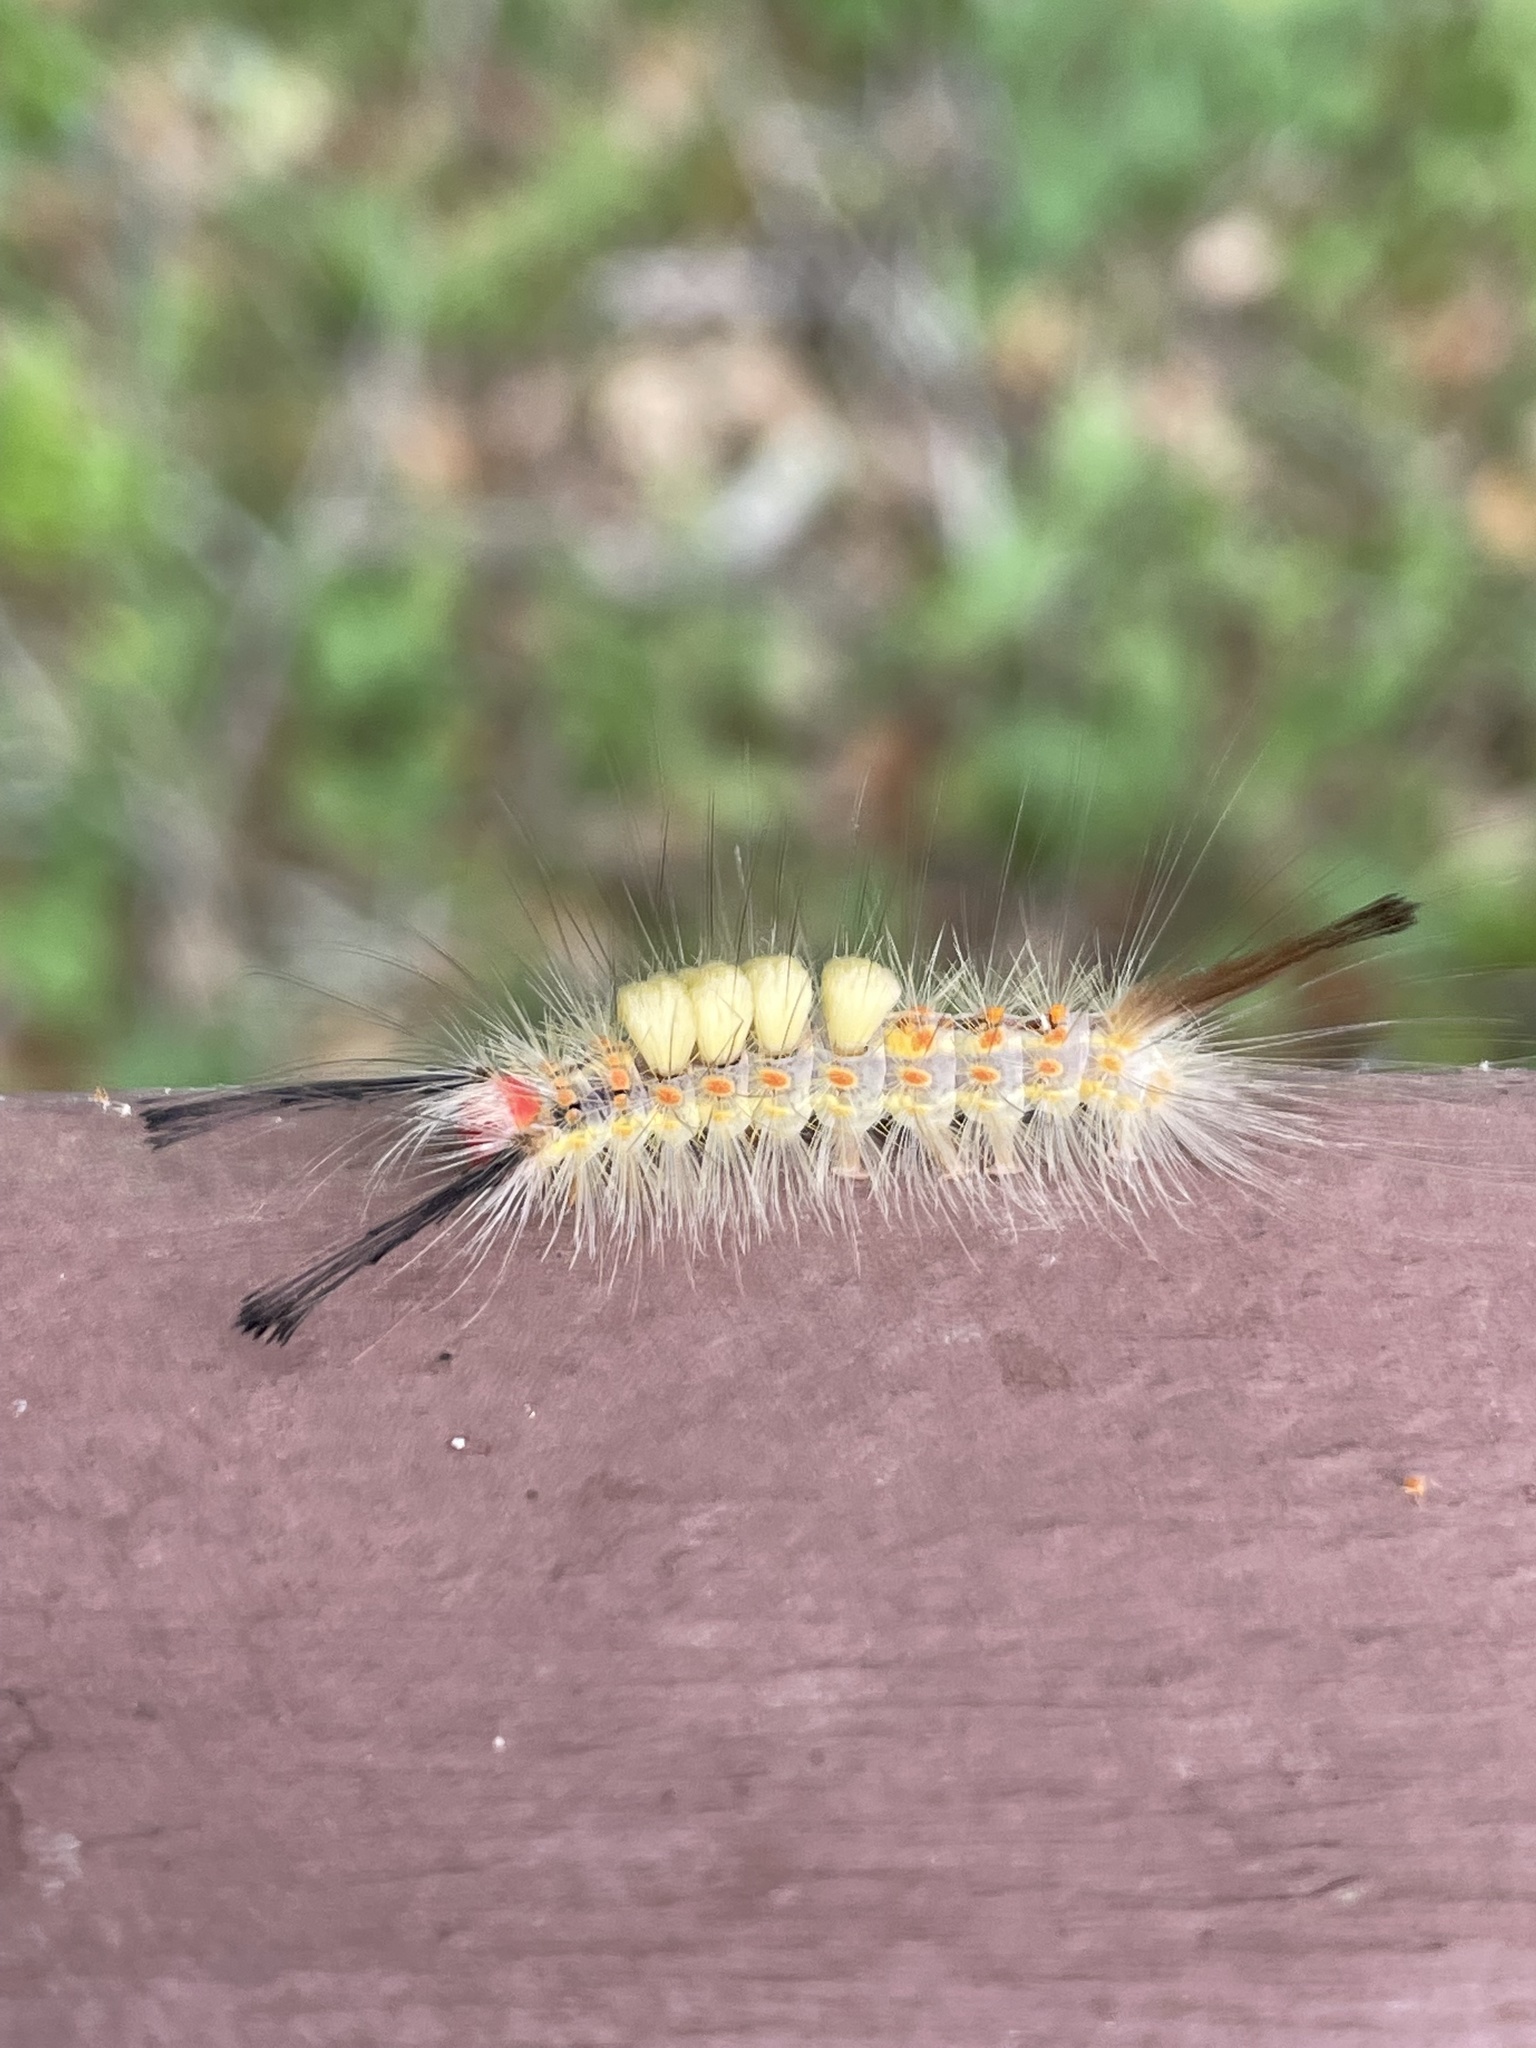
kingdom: Animalia
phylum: Arthropoda
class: Insecta
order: Lepidoptera
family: Erebidae
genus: Orgyia
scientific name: Orgyia detrita
